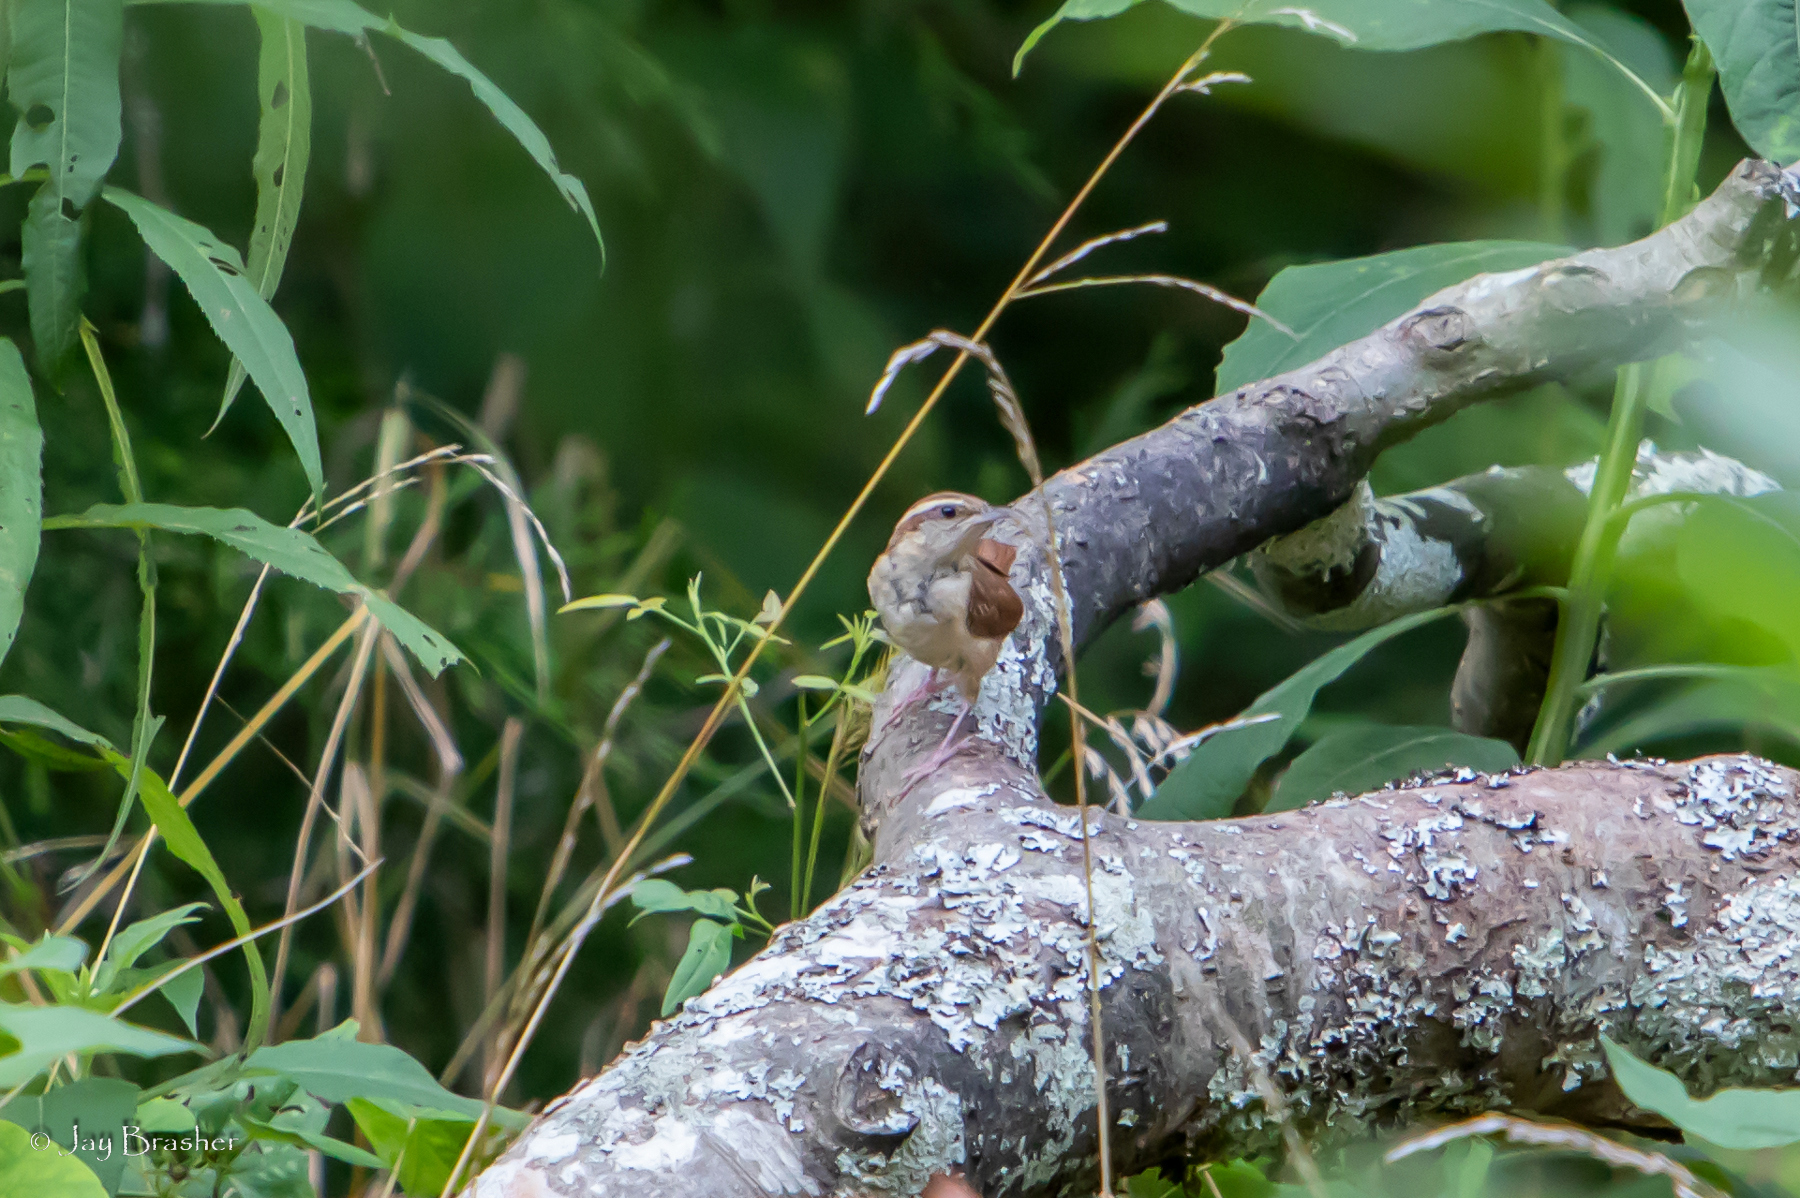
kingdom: Animalia
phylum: Chordata
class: Aves
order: Passeriformes
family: Troglodytidae
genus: Thryothorus
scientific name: Thryothorus ludovicianus
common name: Carolina wren
